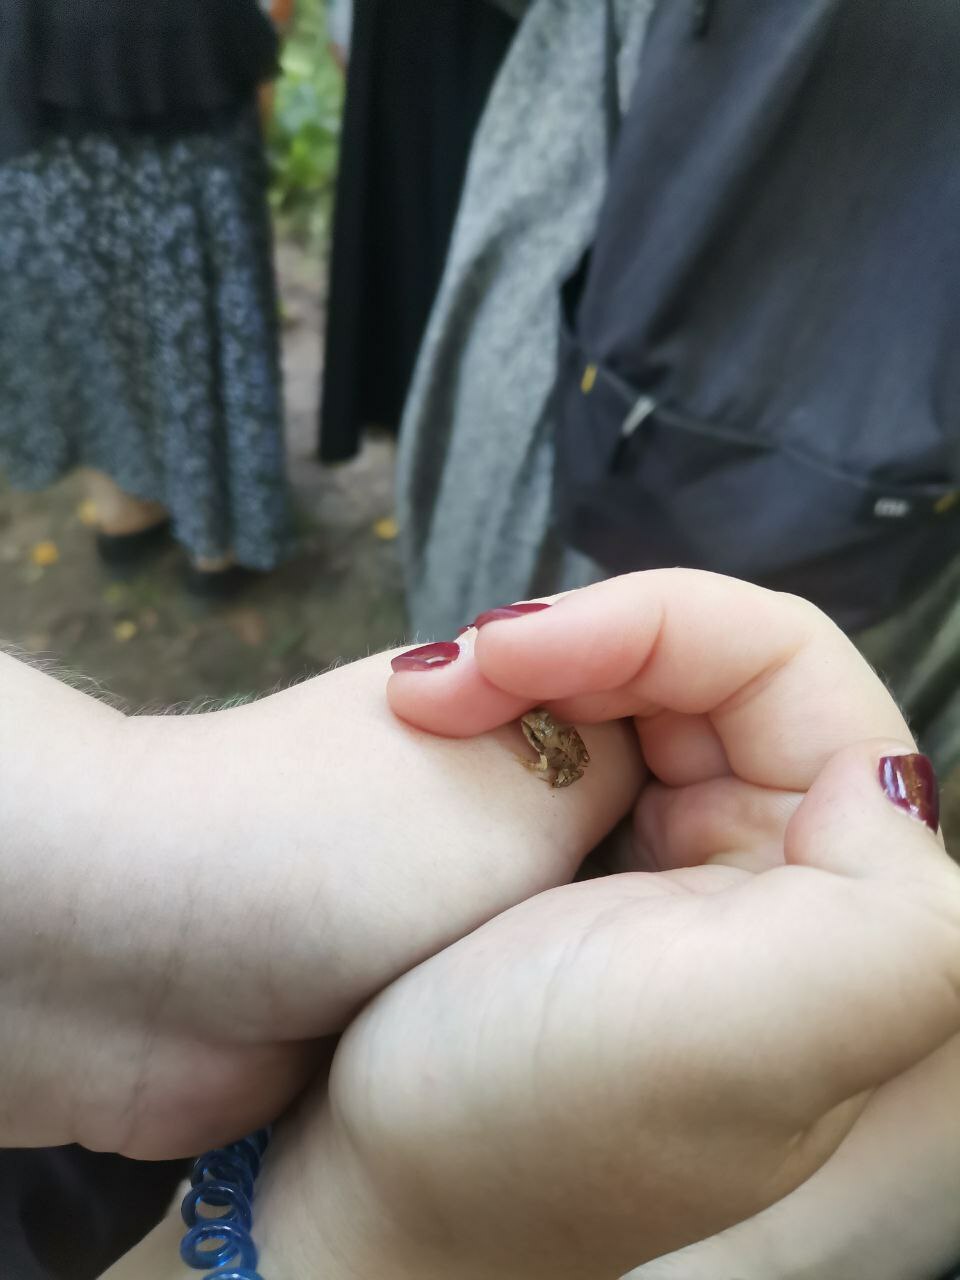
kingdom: Animalia
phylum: Chordata
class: Amphibia
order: Anura
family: Ranidae
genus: Rana
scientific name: Rana temporaria
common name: Common frog
